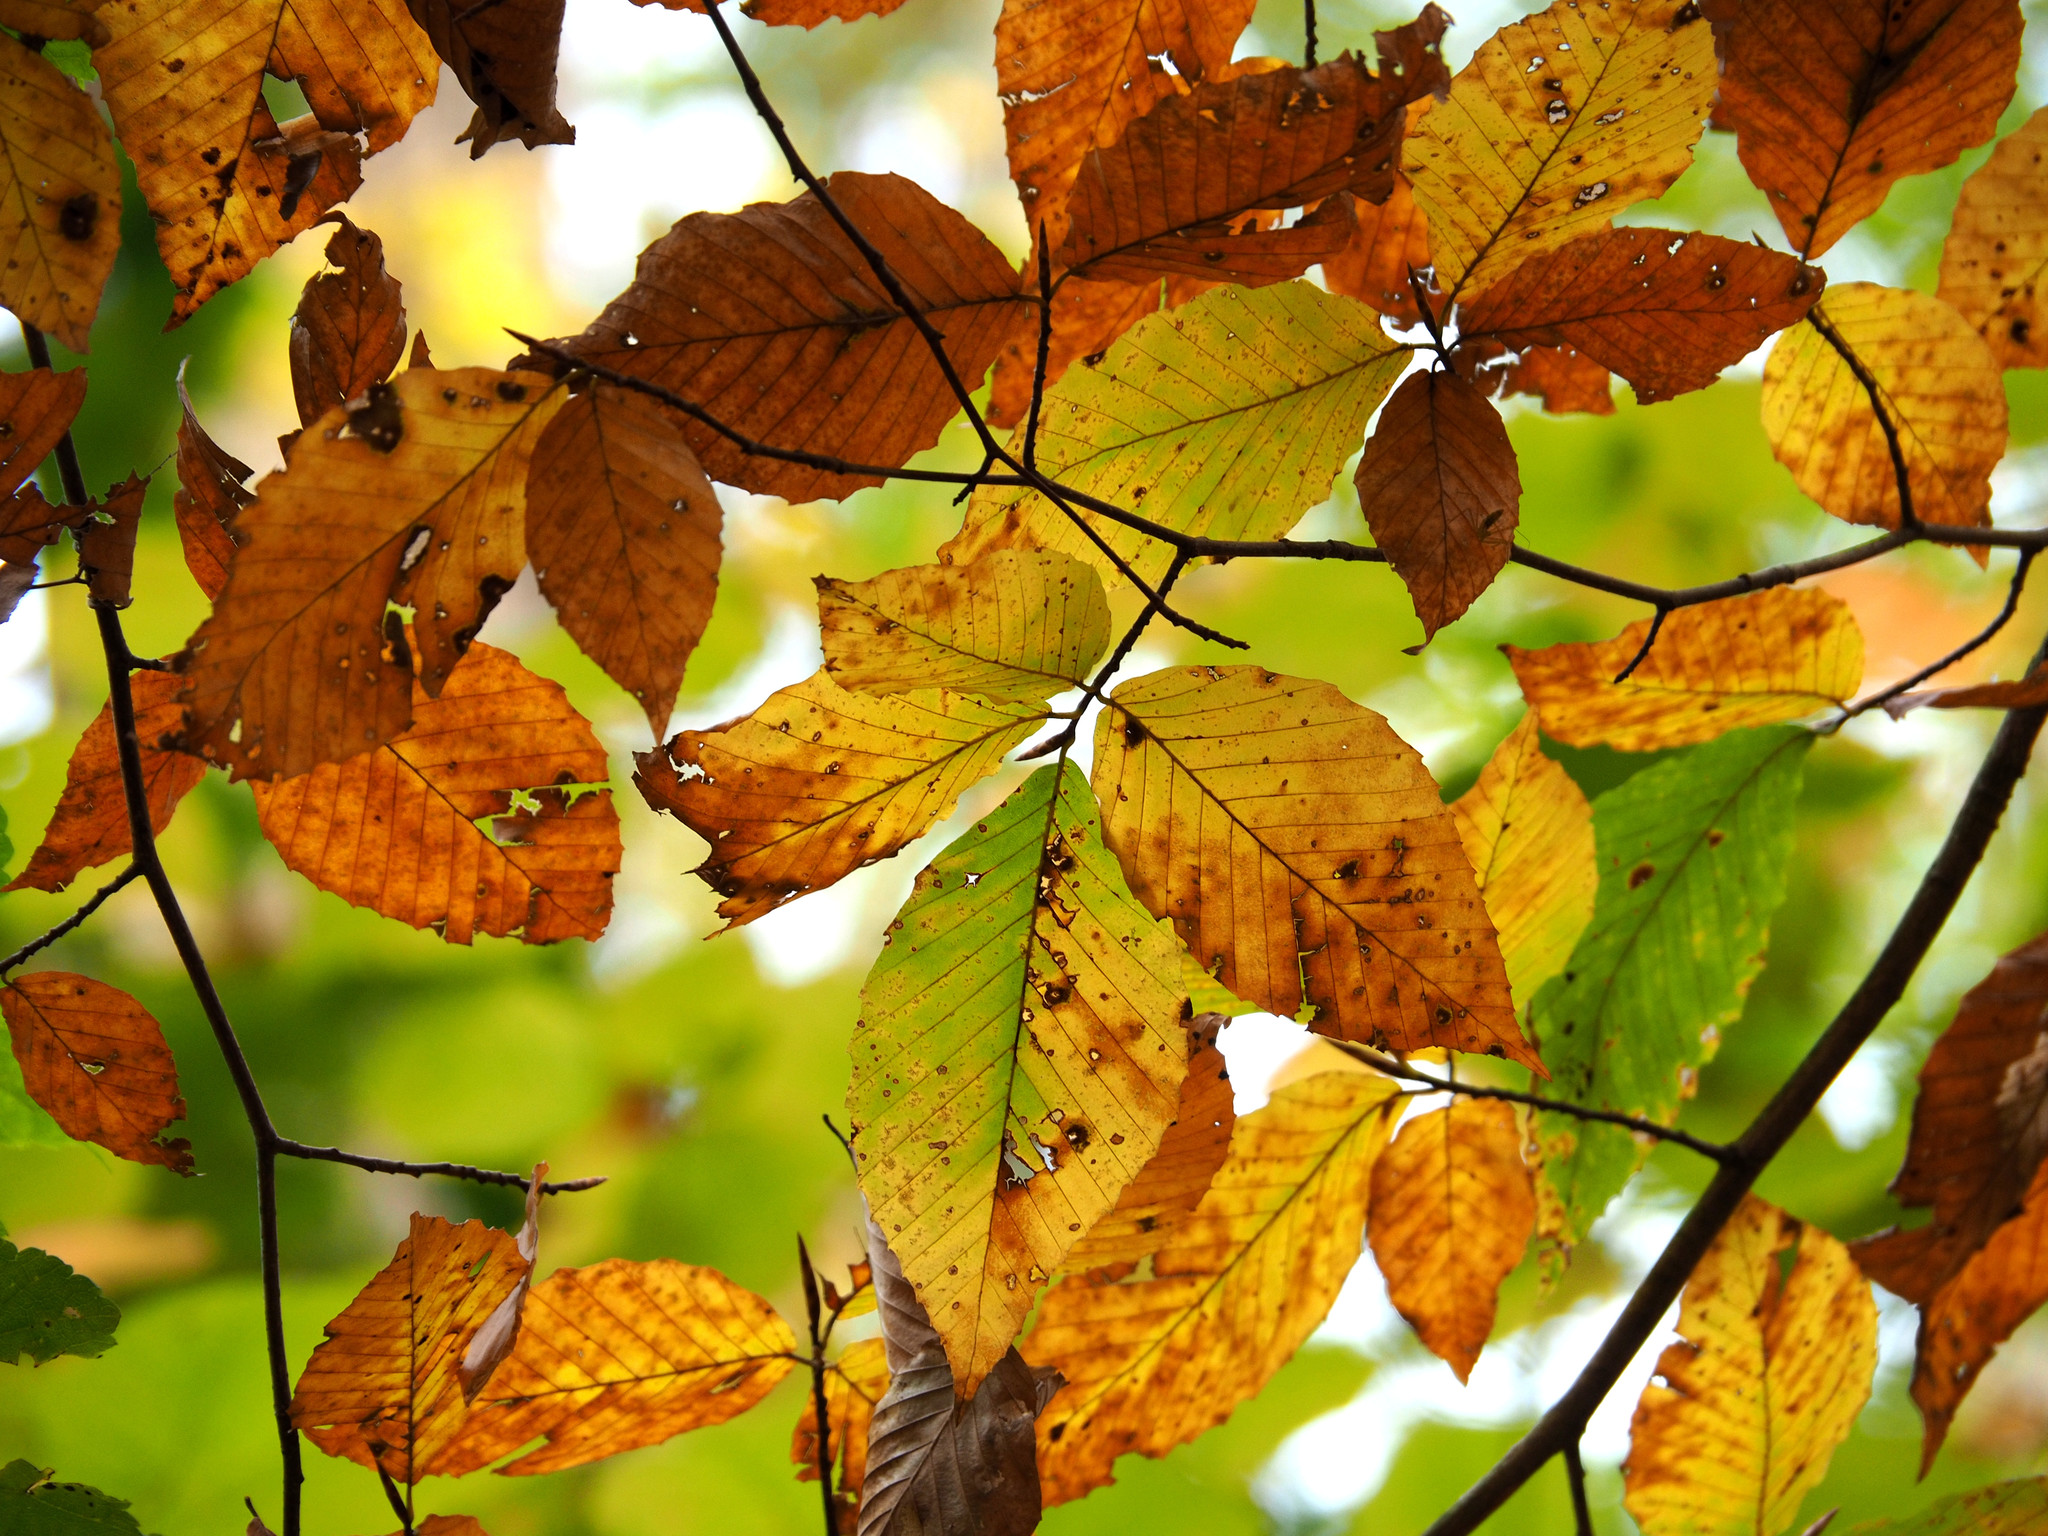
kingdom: Plantae
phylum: Tracheophyta
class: Magnoliopsida
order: Fagales
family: Fagaceae
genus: Fagus
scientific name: Fagus grandifolia
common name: American beech
